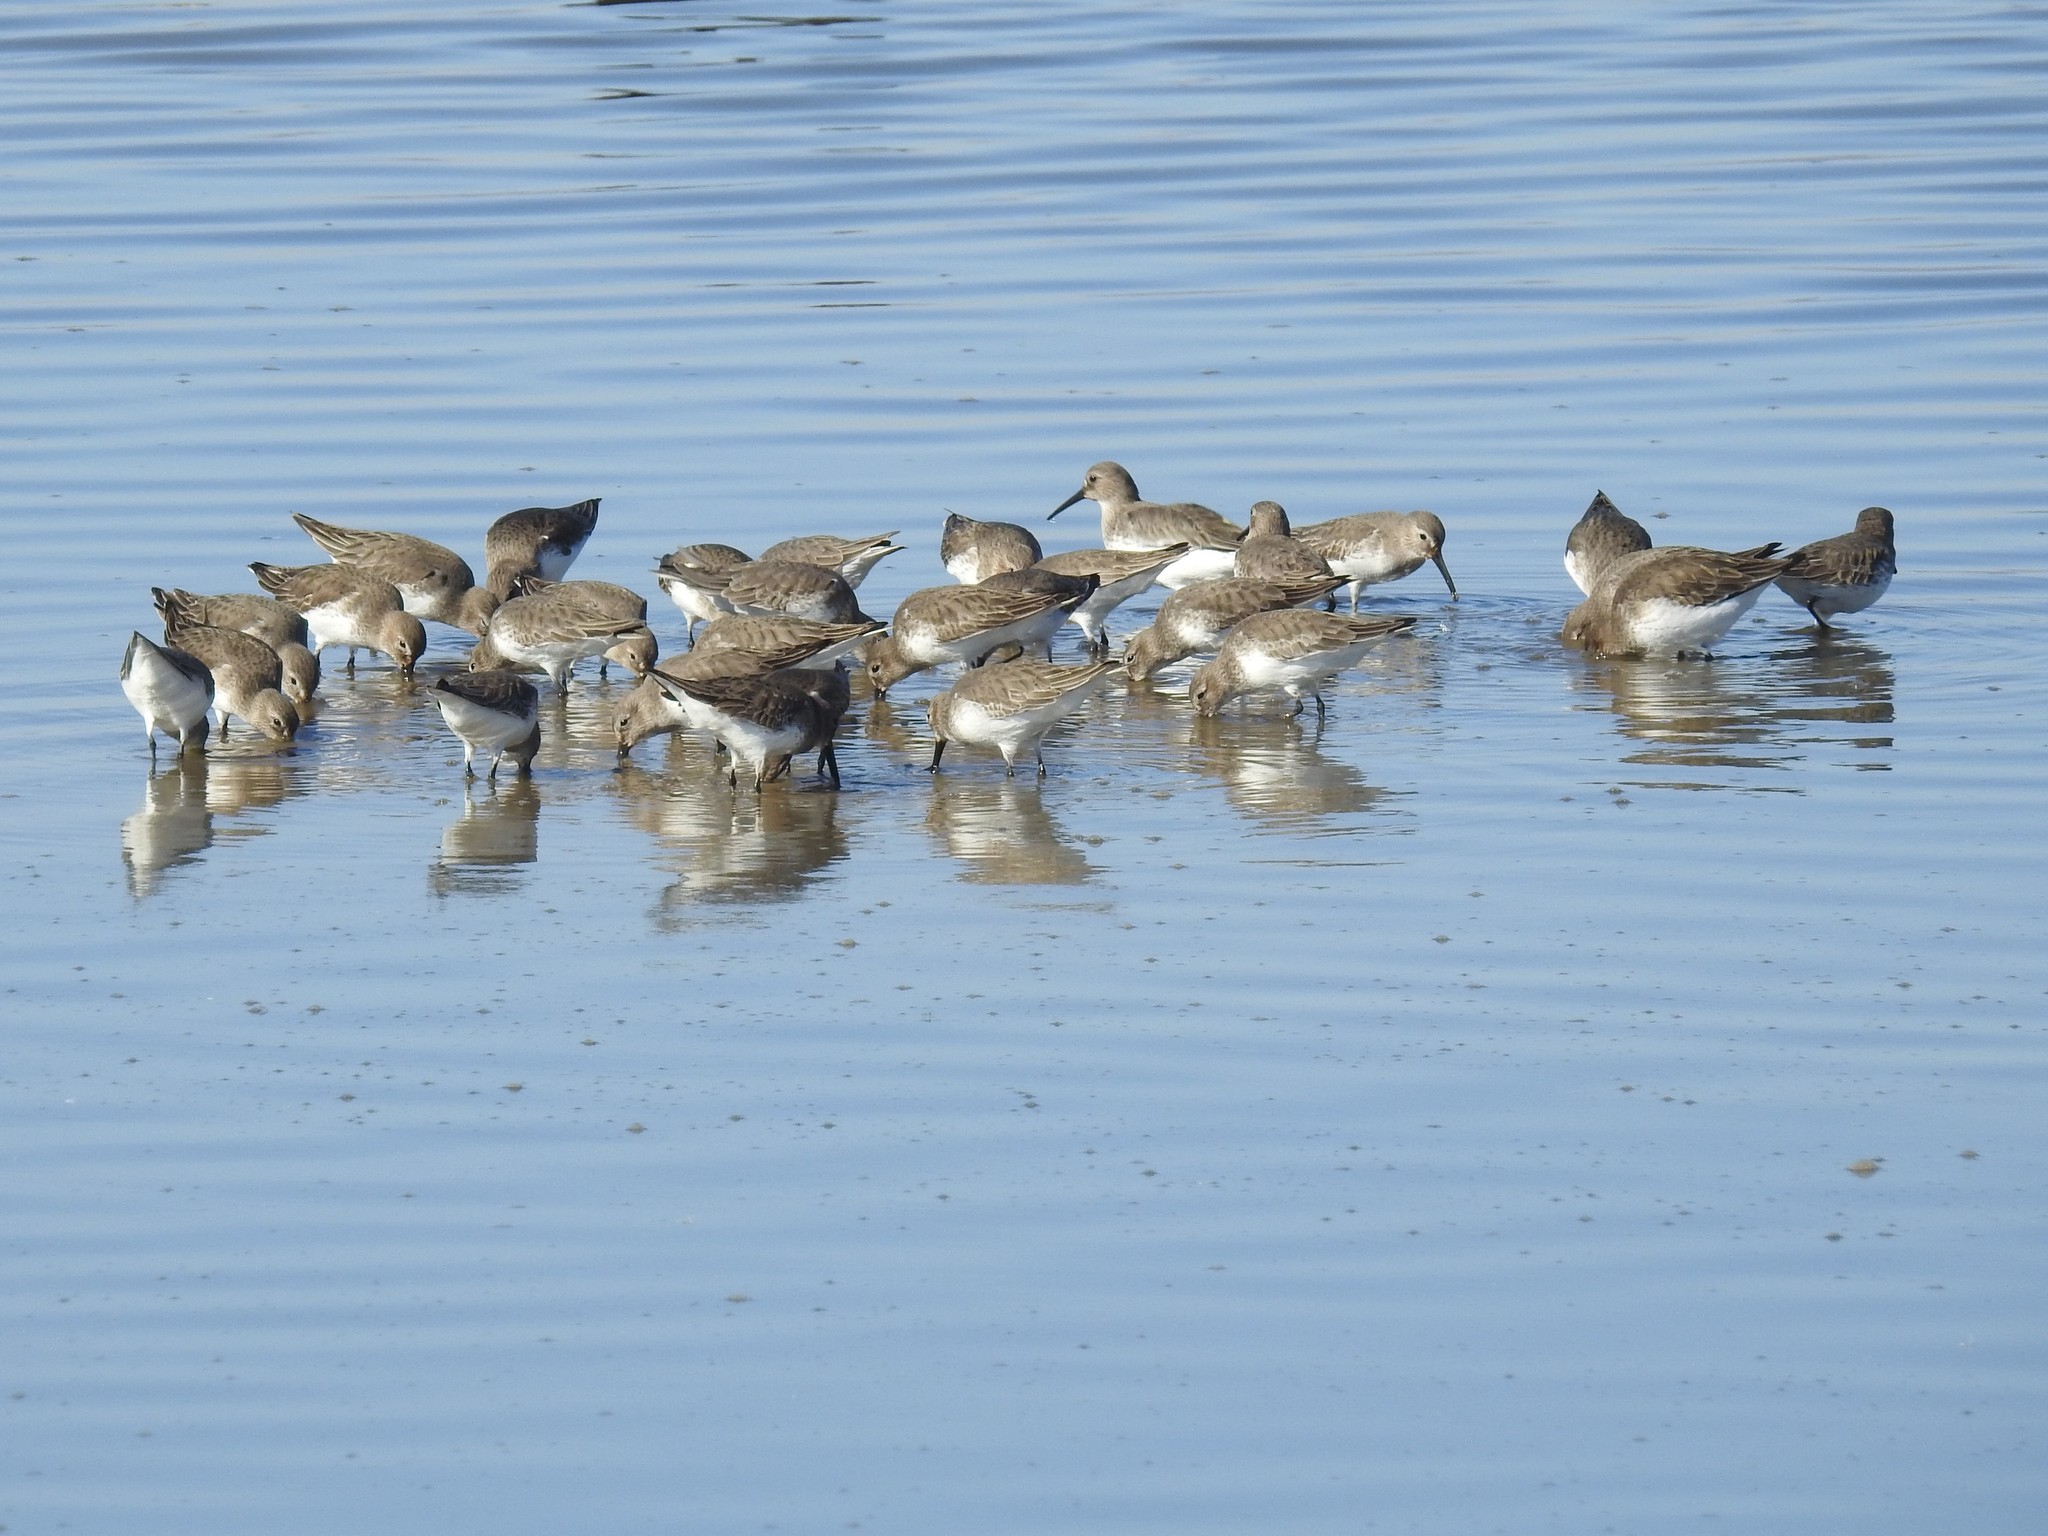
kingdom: Animalia
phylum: Chordata
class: Aves
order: Charadriiformes
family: Scolopacidae
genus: Calidris
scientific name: Calidris alpina
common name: Dunlin
